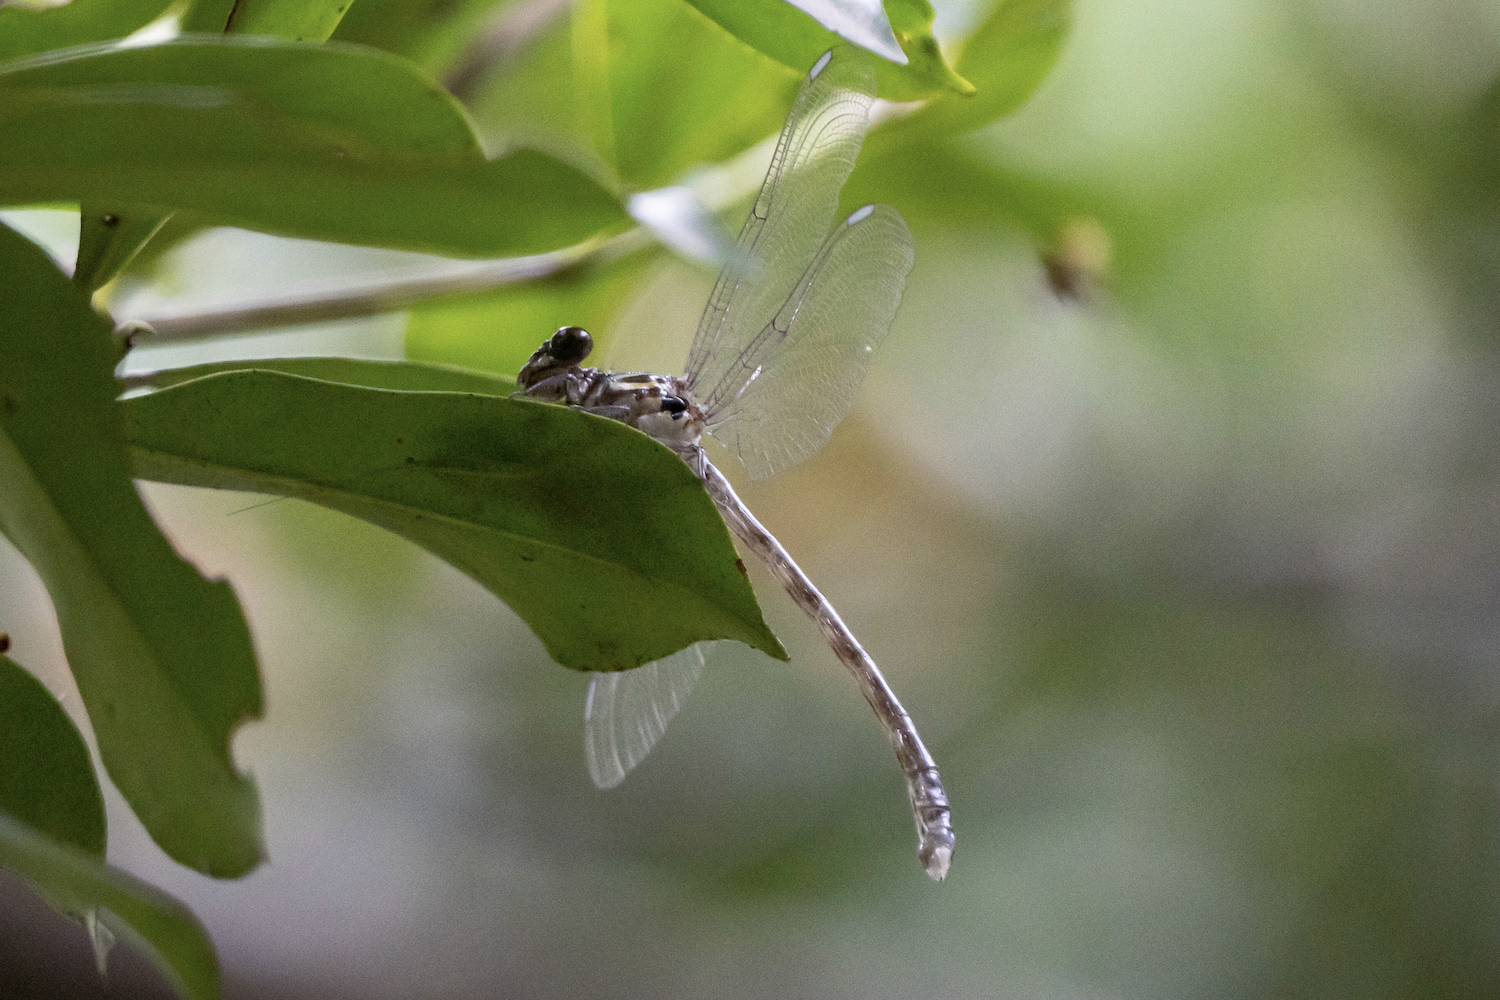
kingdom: Animalia
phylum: Arthropoda
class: Insecta
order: Odonata
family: Gomphidae
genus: Leptogomphus
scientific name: Leptogomphus hongkongensis
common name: Hong kong clubtail
